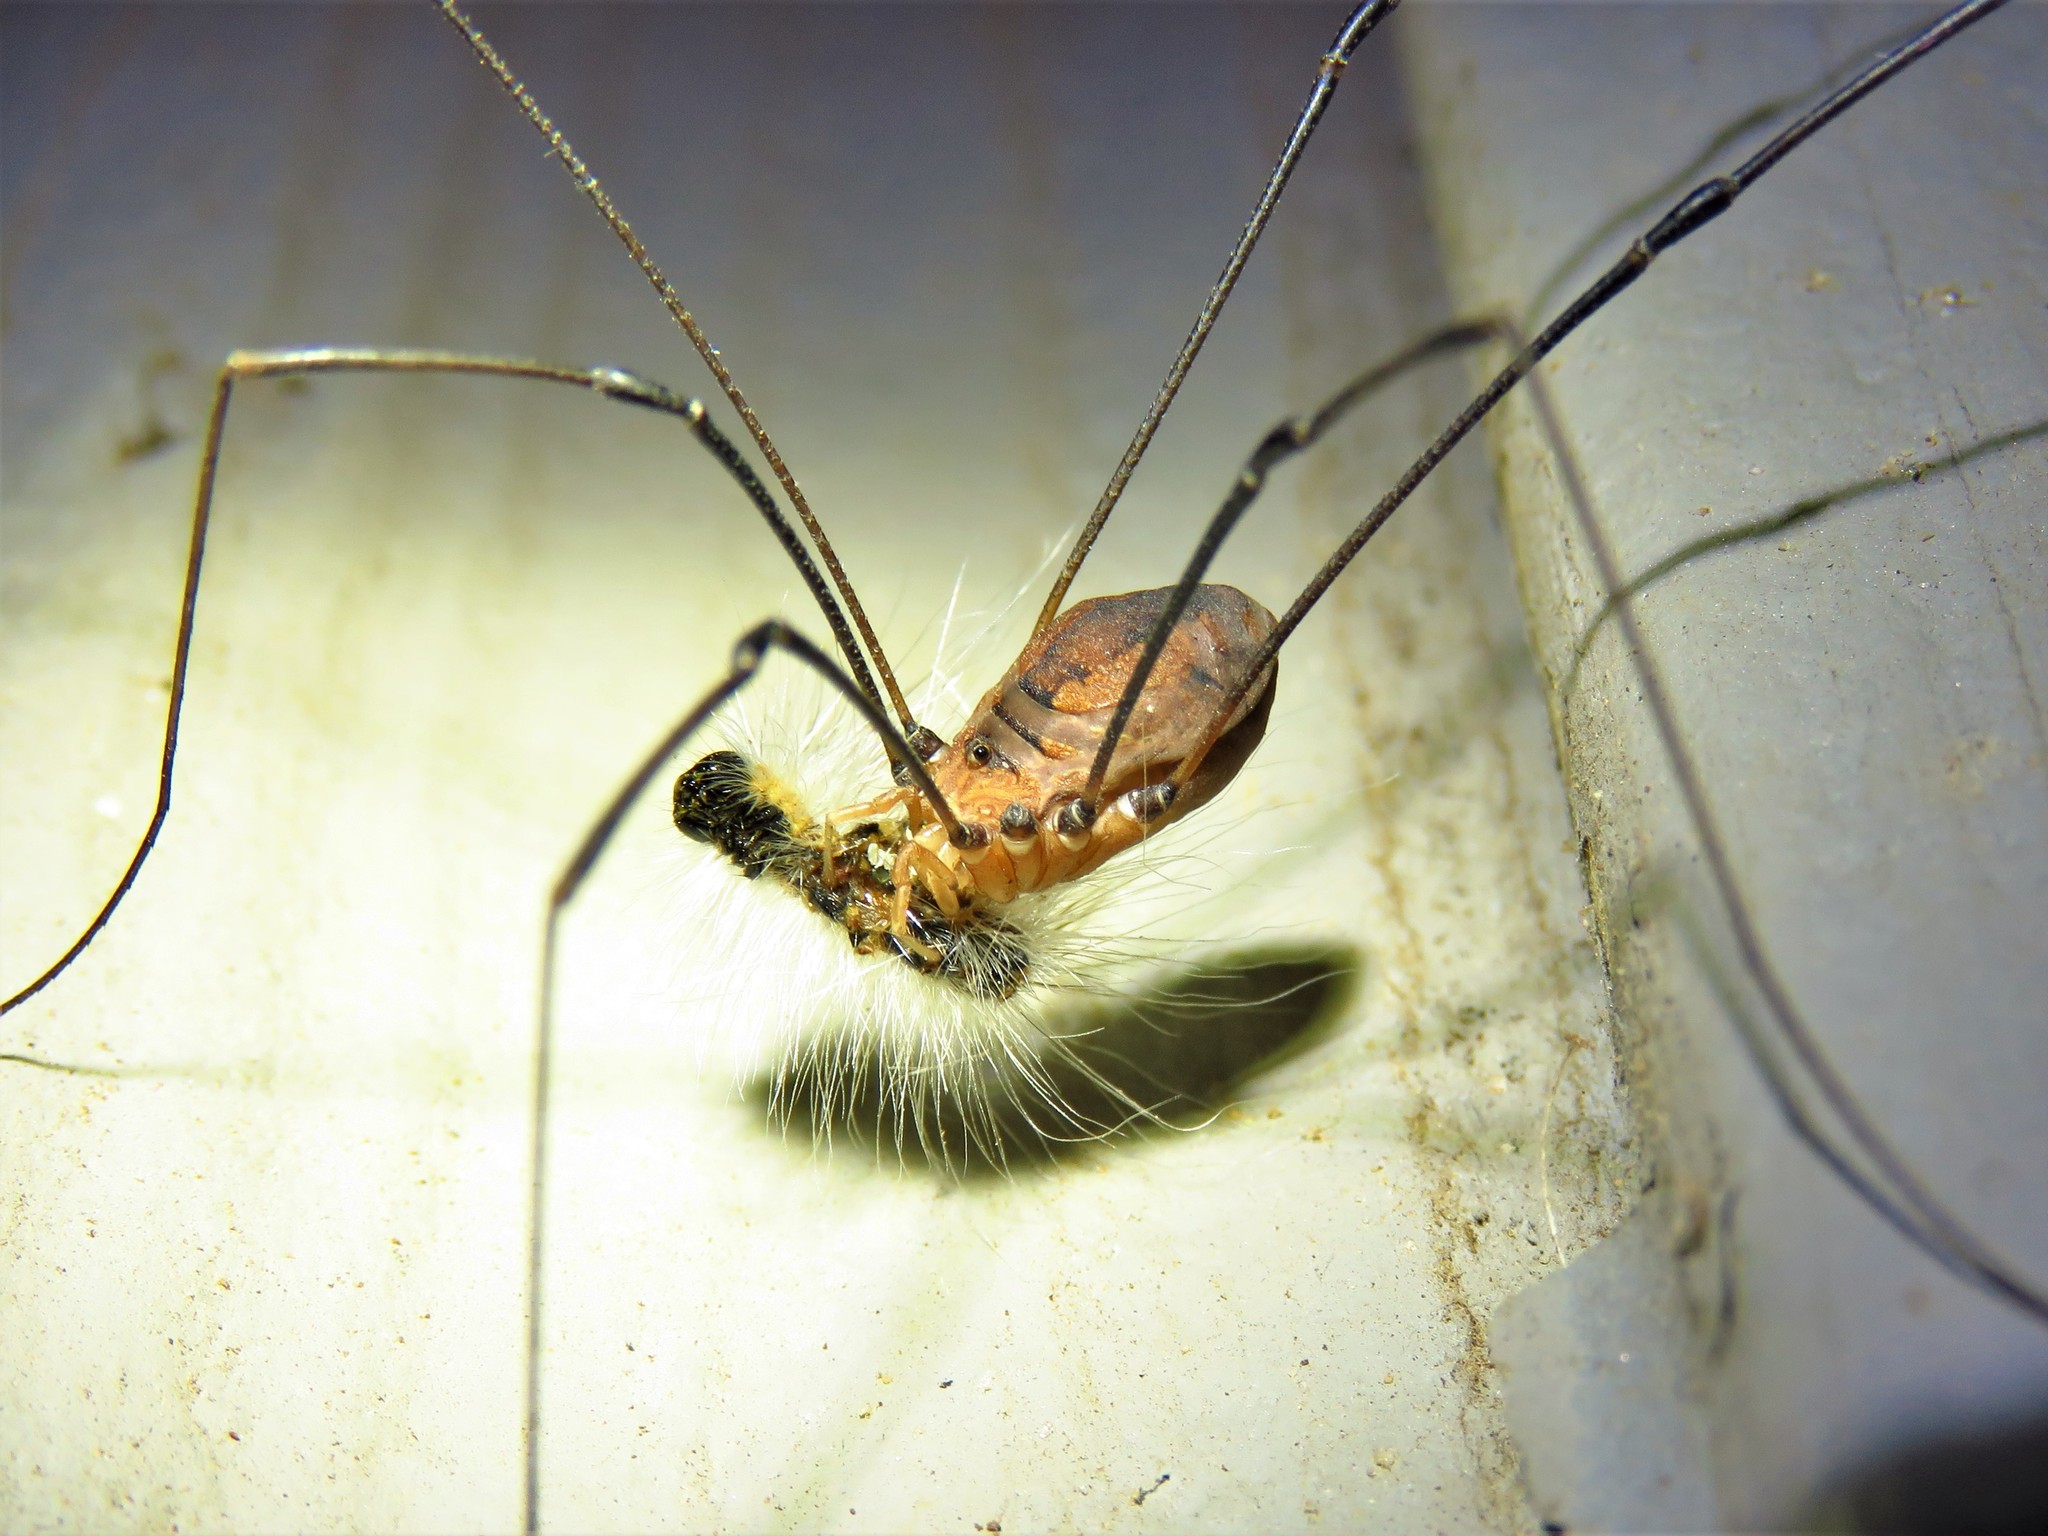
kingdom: Animalia
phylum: Arthropoda
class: Arachnida
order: Opiliones
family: Sclerosomatidae
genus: Leiobunum
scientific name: Leiobunum vittatum
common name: Eastern harvestman
